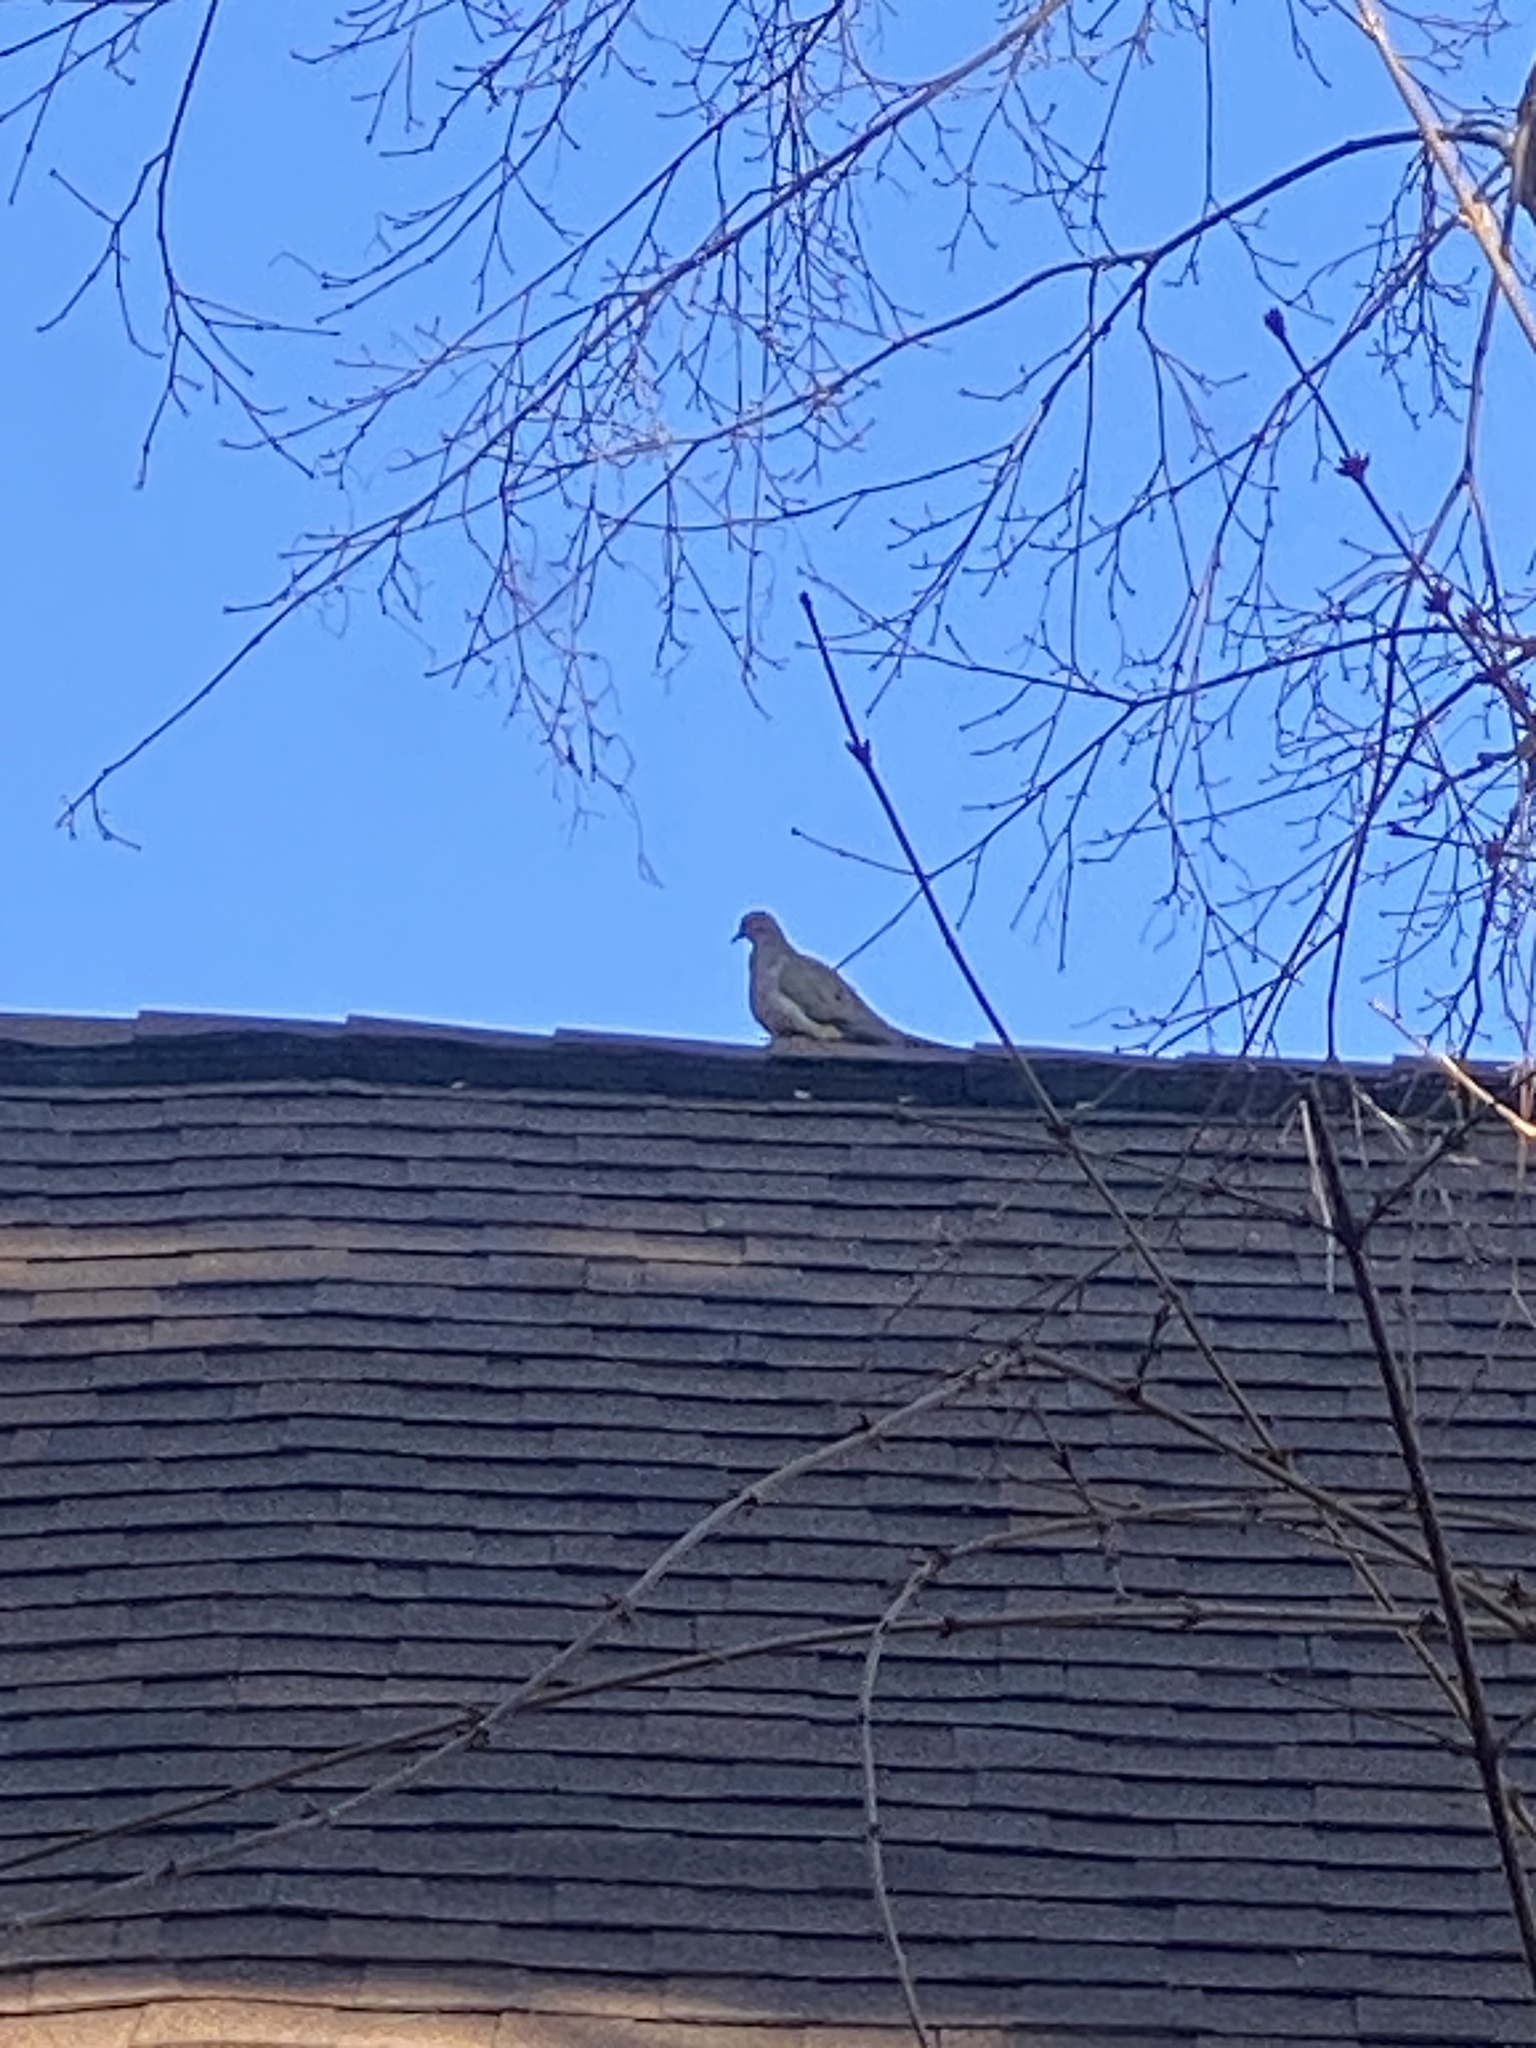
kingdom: Animalia
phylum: Chordata
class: Aves
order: Columbiformes
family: Columbidae
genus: Zenaida
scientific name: Zenaida macroura
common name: Mourning dove
